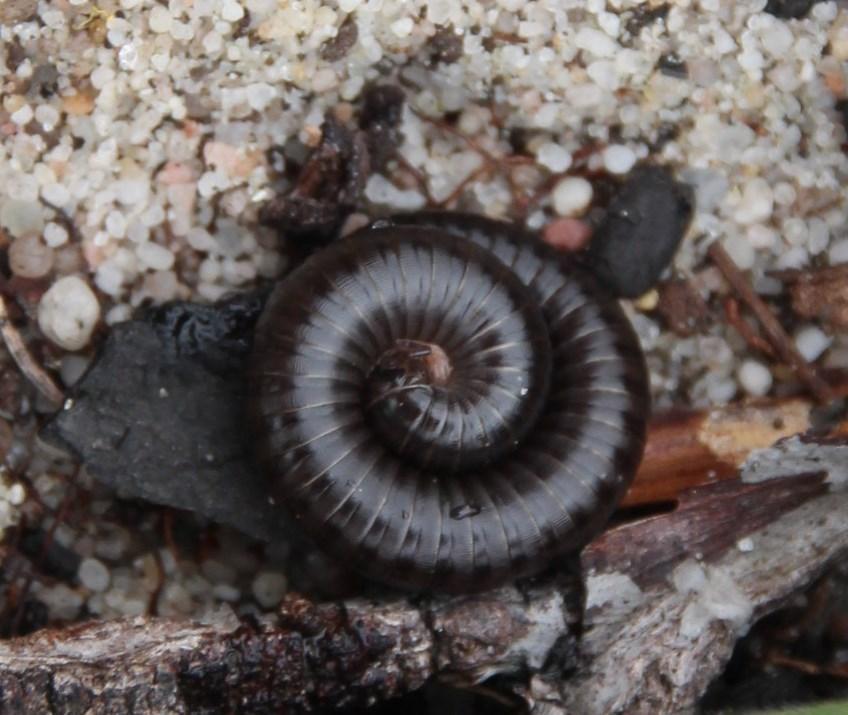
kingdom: Animalia
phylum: Arthropoda
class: Diplopoda
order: Julida
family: Julidae
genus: Ommatoiulus
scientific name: Ommatoiulus moreleti
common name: Portuguese millipede
